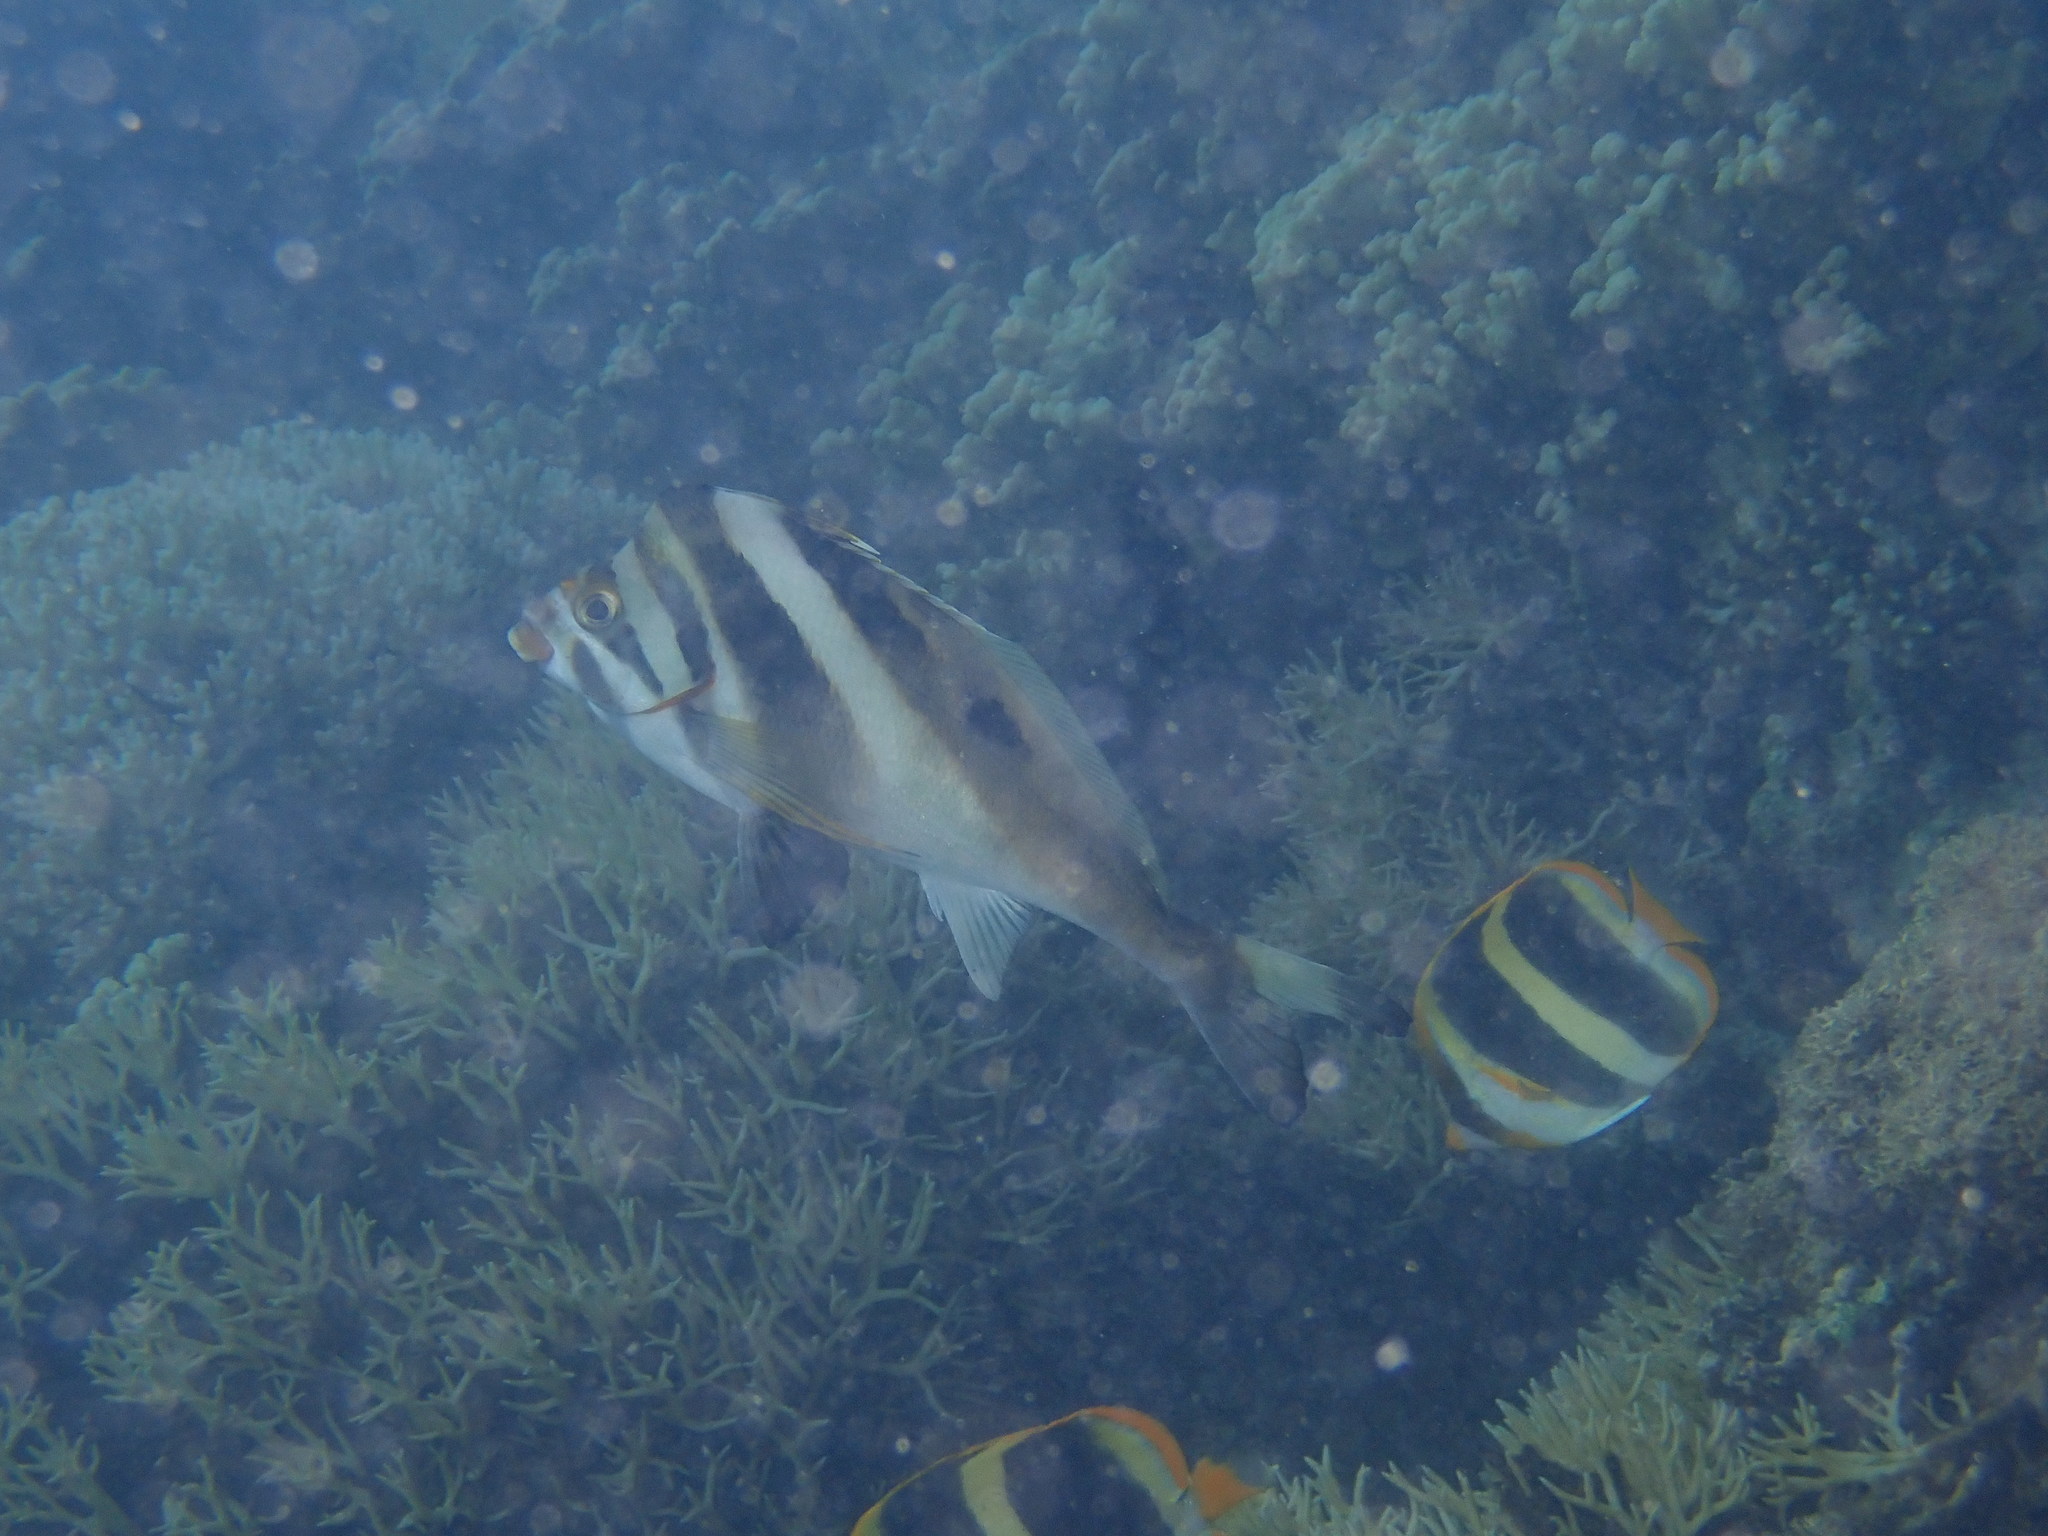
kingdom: Animalia
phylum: Chordata
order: Perciformes
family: Chaetodontidae
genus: Chaetodon
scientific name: Chaetodon tricinctus
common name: Three-striped butterflyfish
